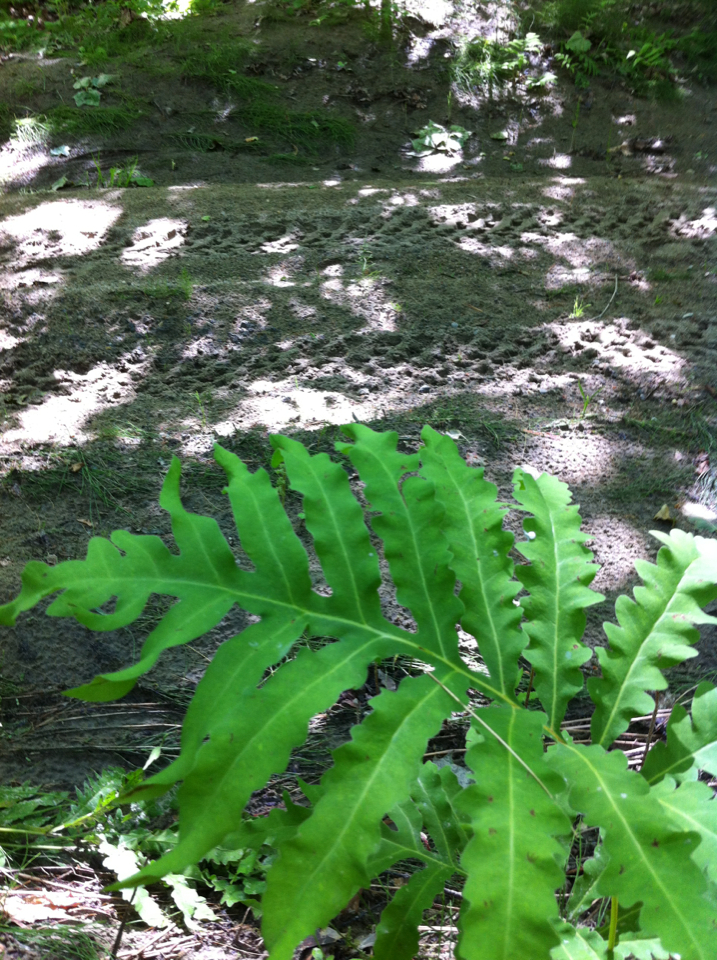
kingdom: Plantae
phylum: Tracheophyta
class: Polypodiopsida
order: Polypodiales
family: Onocleaceae
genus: Onoclea
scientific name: Onoclea sensibilis
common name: Sensitive fern
